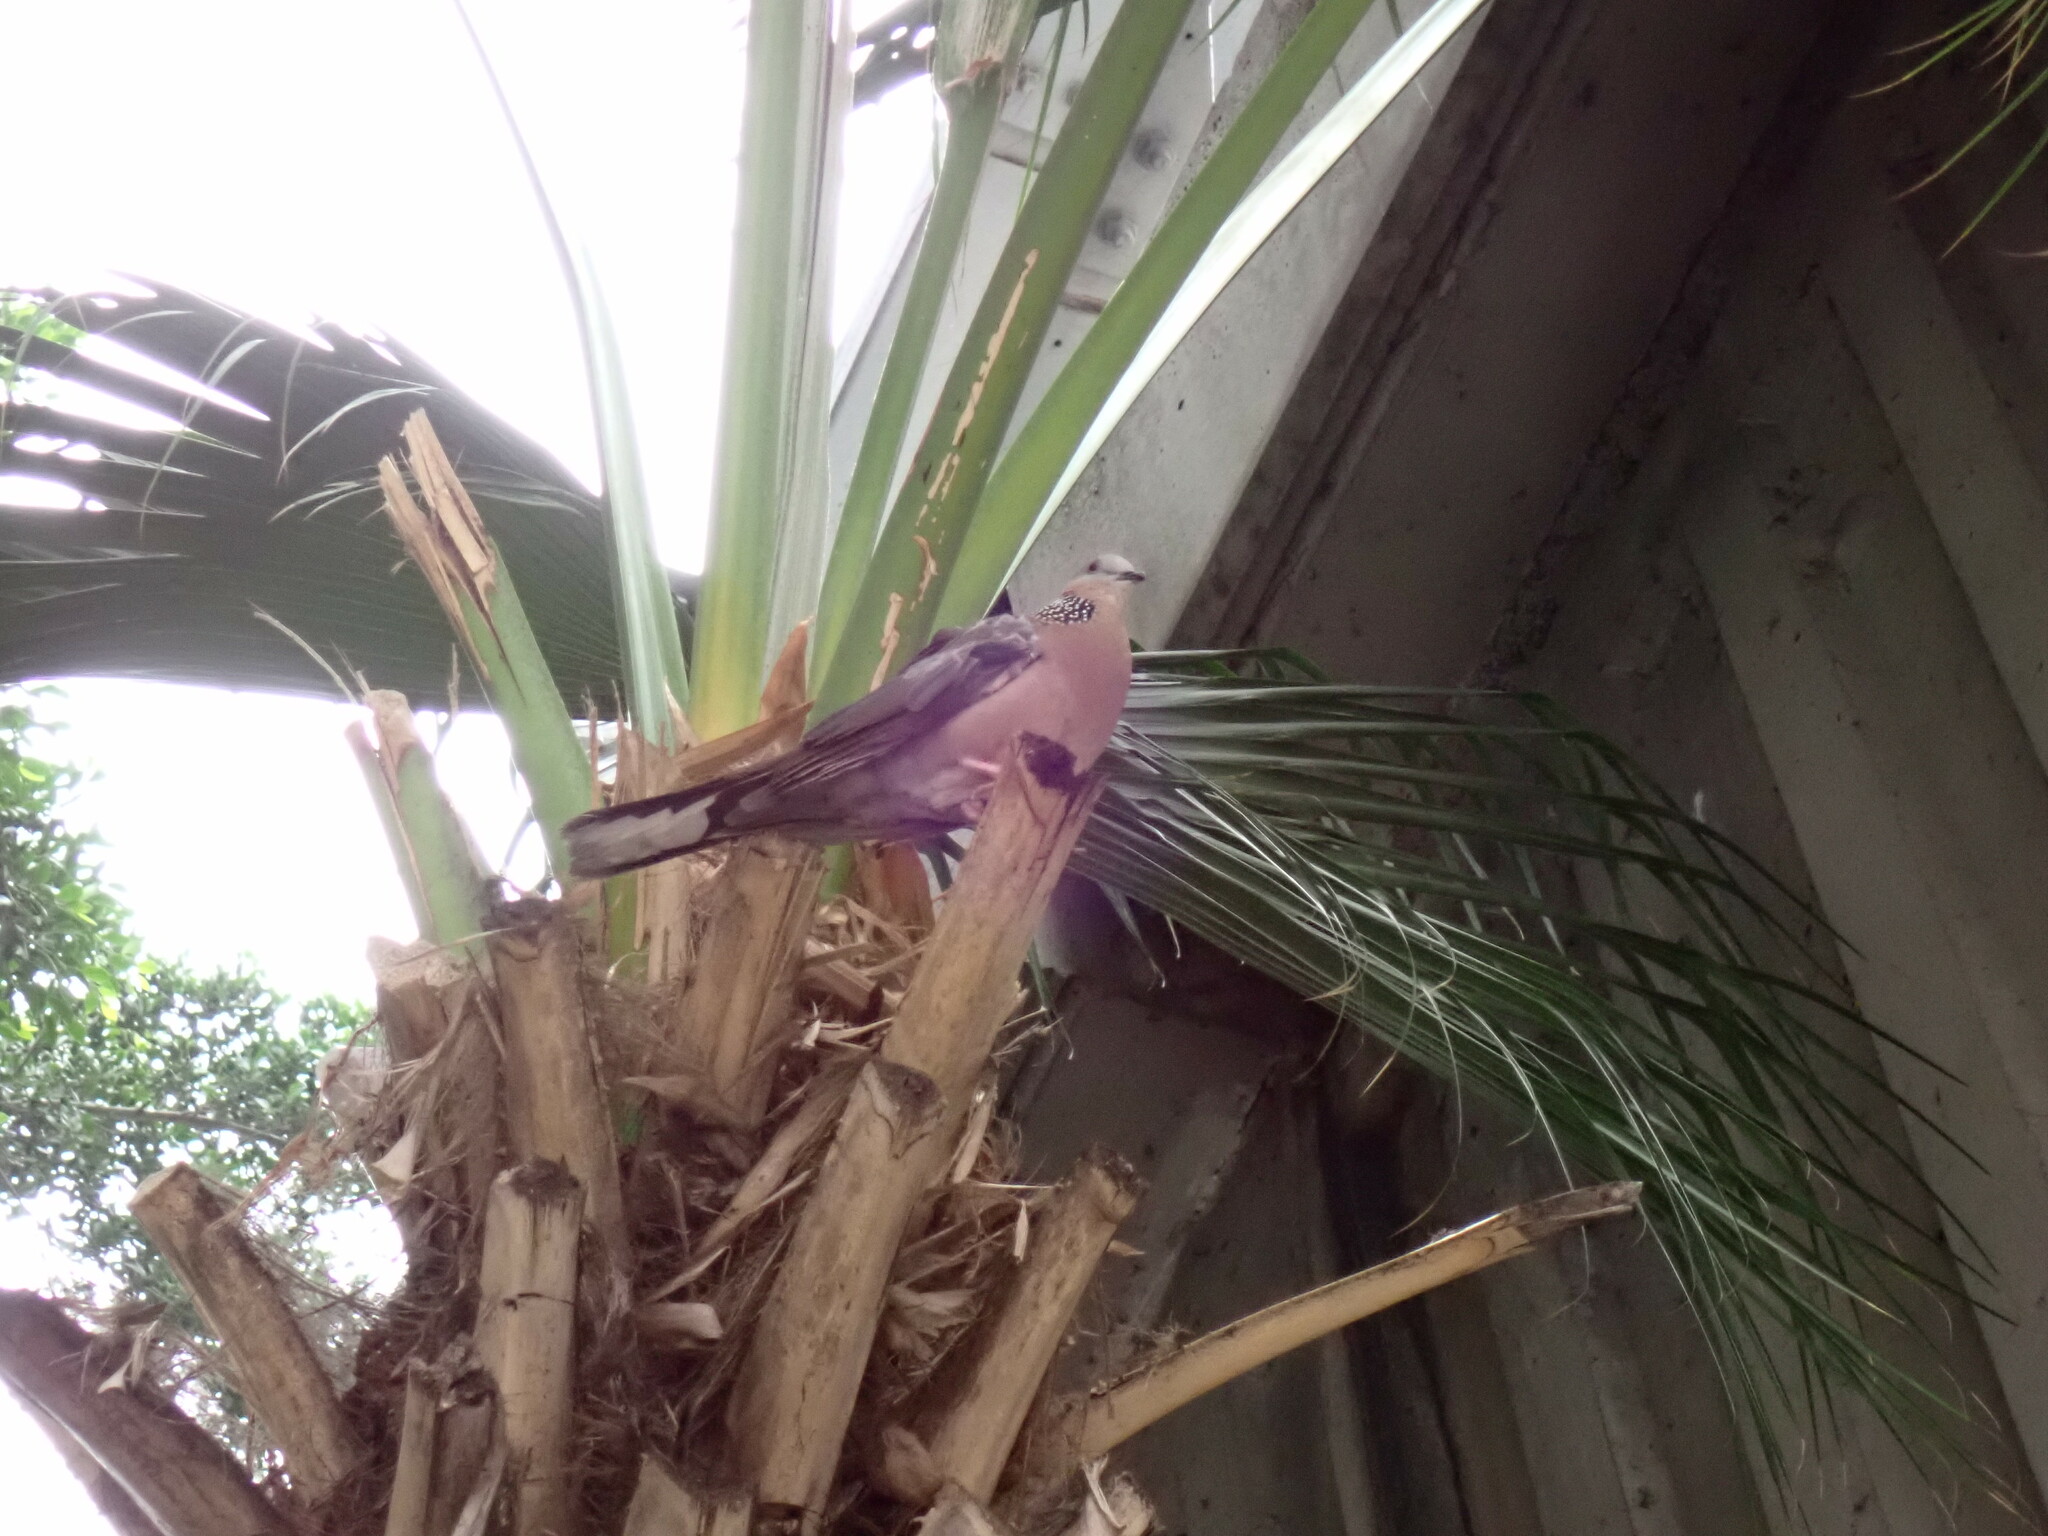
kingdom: Animalia
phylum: Chordata
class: Aves
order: Columbiformes
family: Columbidae
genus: Spilopelia
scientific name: Spilopelia chinensis
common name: Spotted dove
